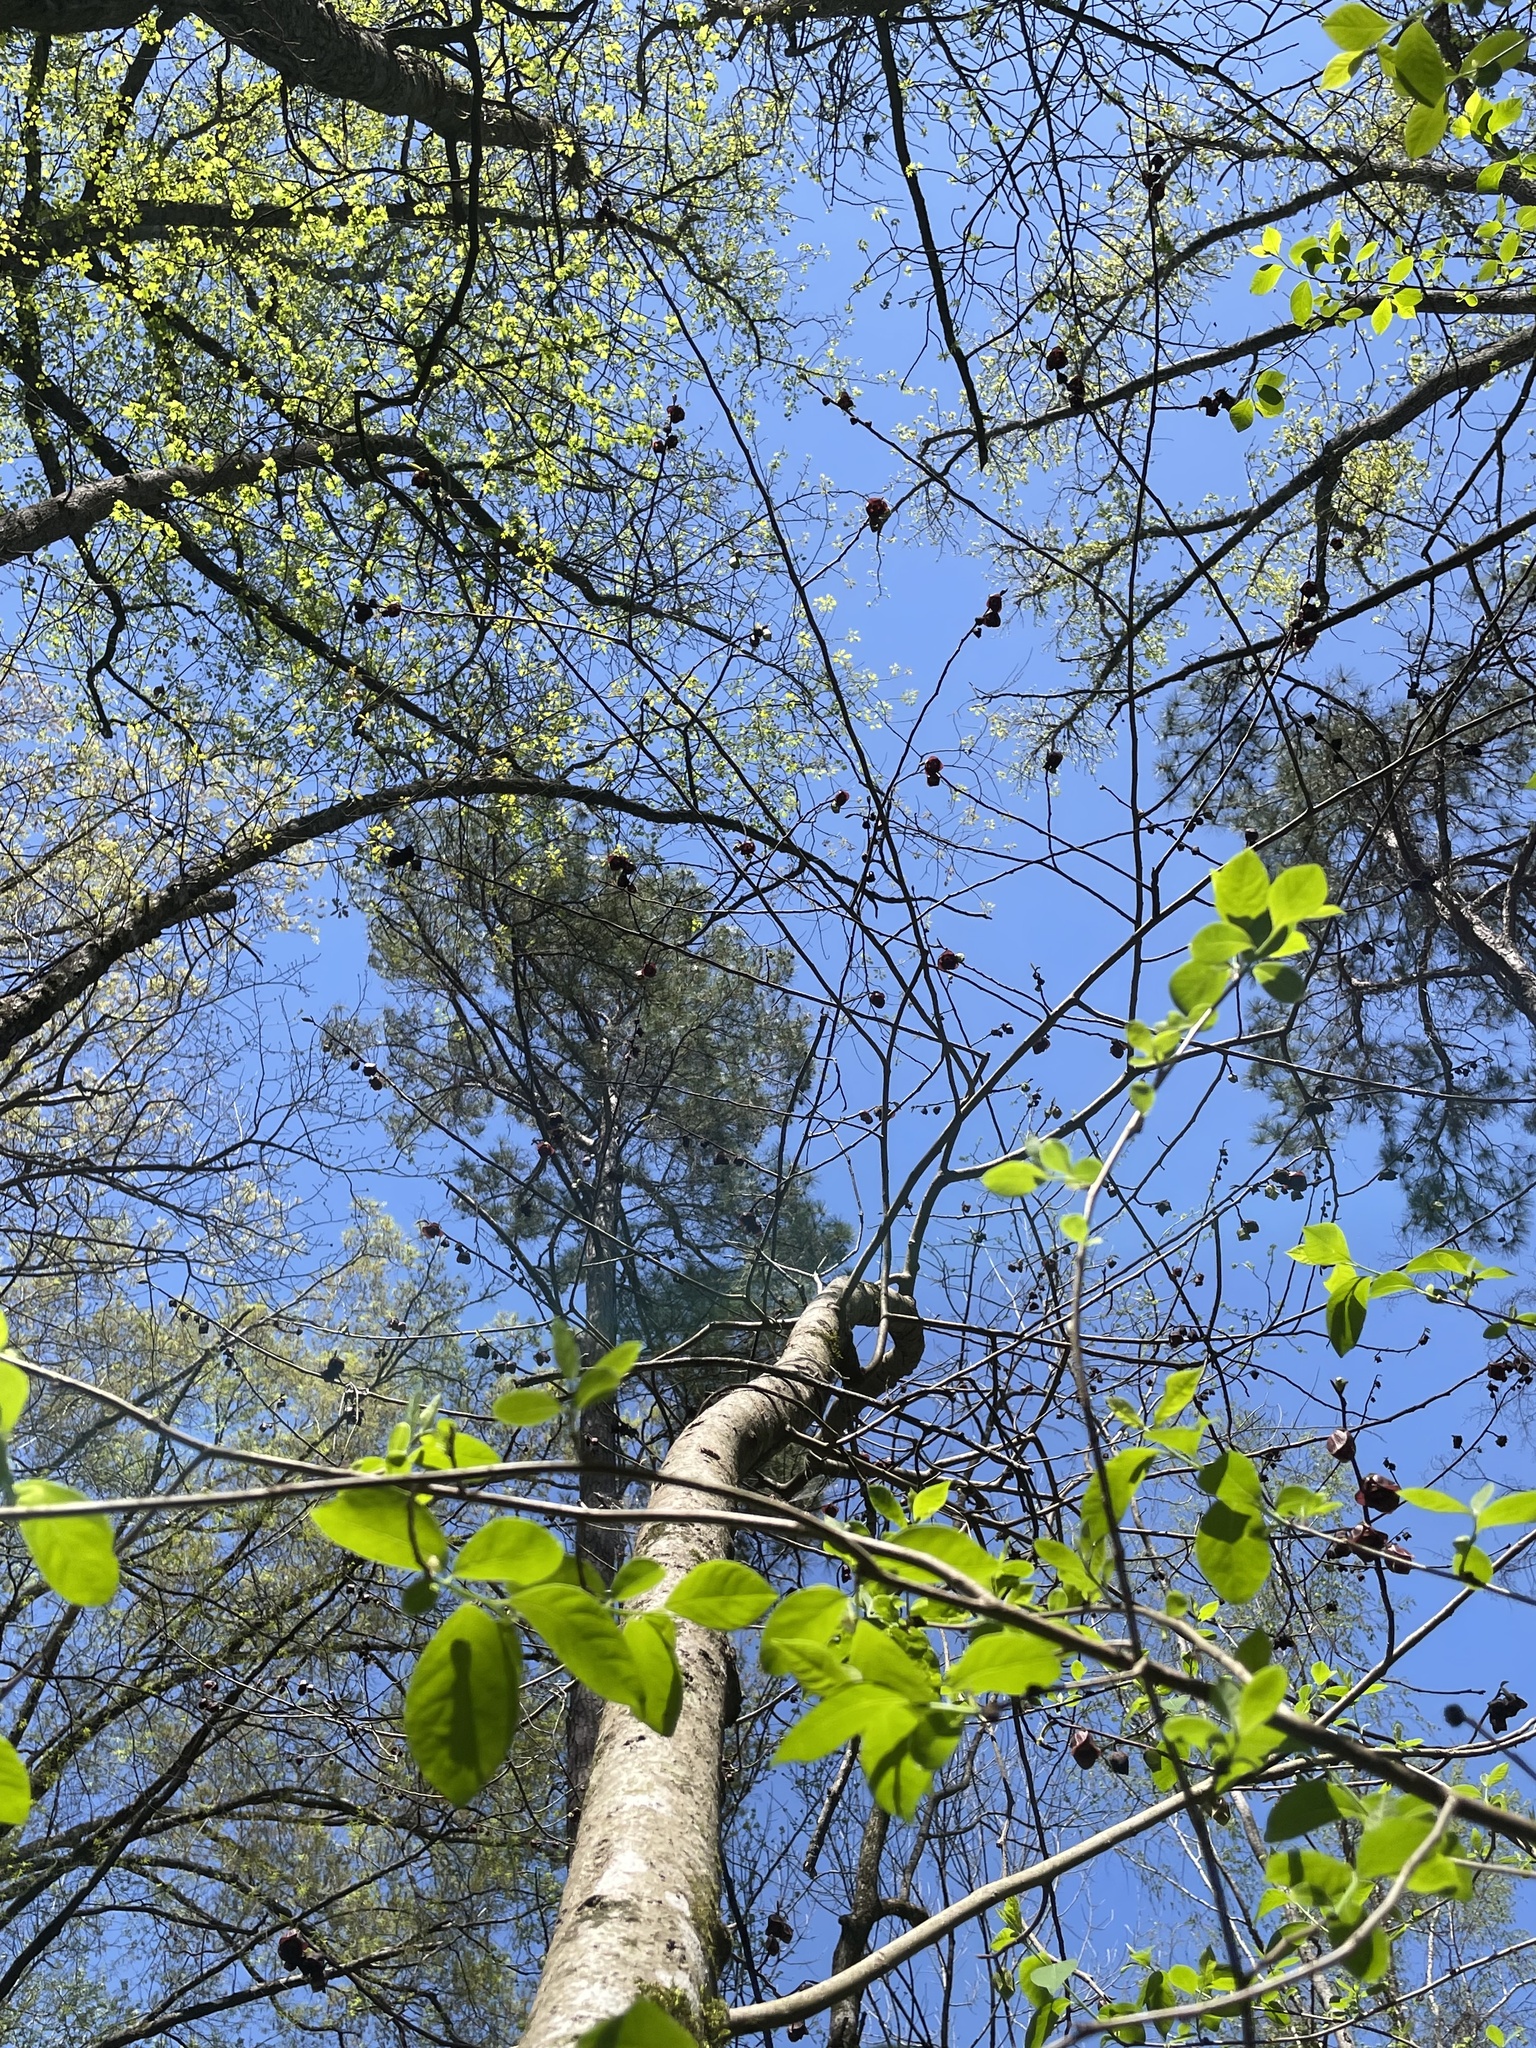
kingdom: Plantae
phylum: Tracheophyta
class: Magnoliopsida
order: Magnoliales
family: Annonaceae
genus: Asimina
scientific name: Asimina triloba
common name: Dog-banana
